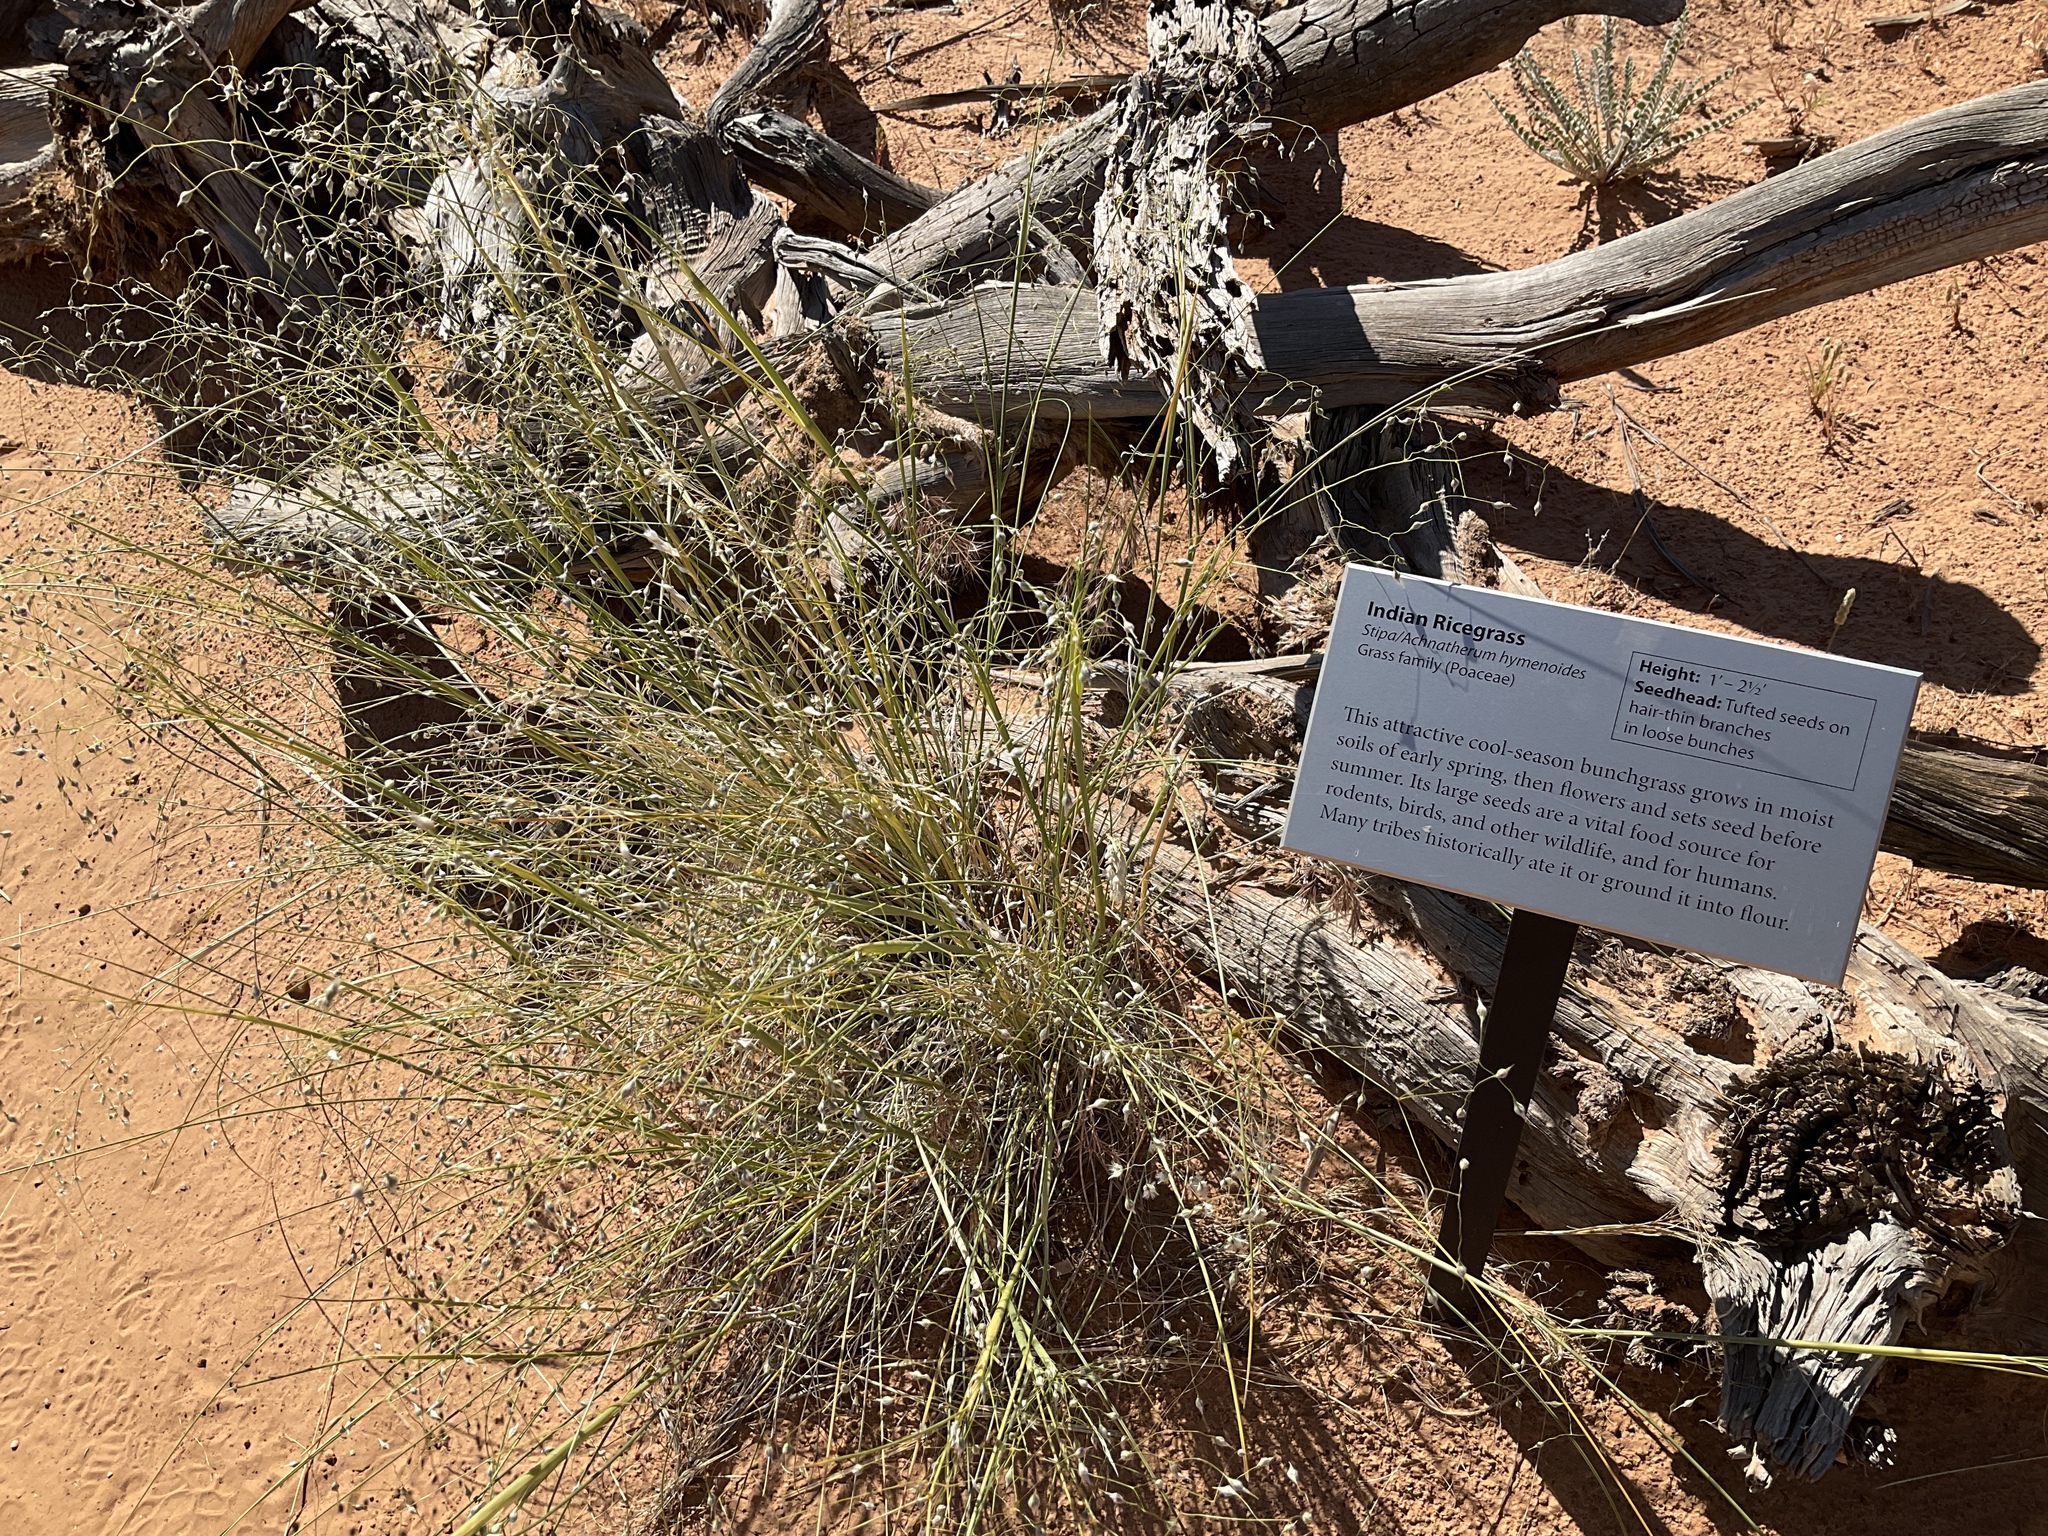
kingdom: Plantae
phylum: Tracheophyta
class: Liliopsida
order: Poales
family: Poaceae
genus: Eriocoma
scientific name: Eriocoma hymenoides
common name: Indian mountain ricegrass
